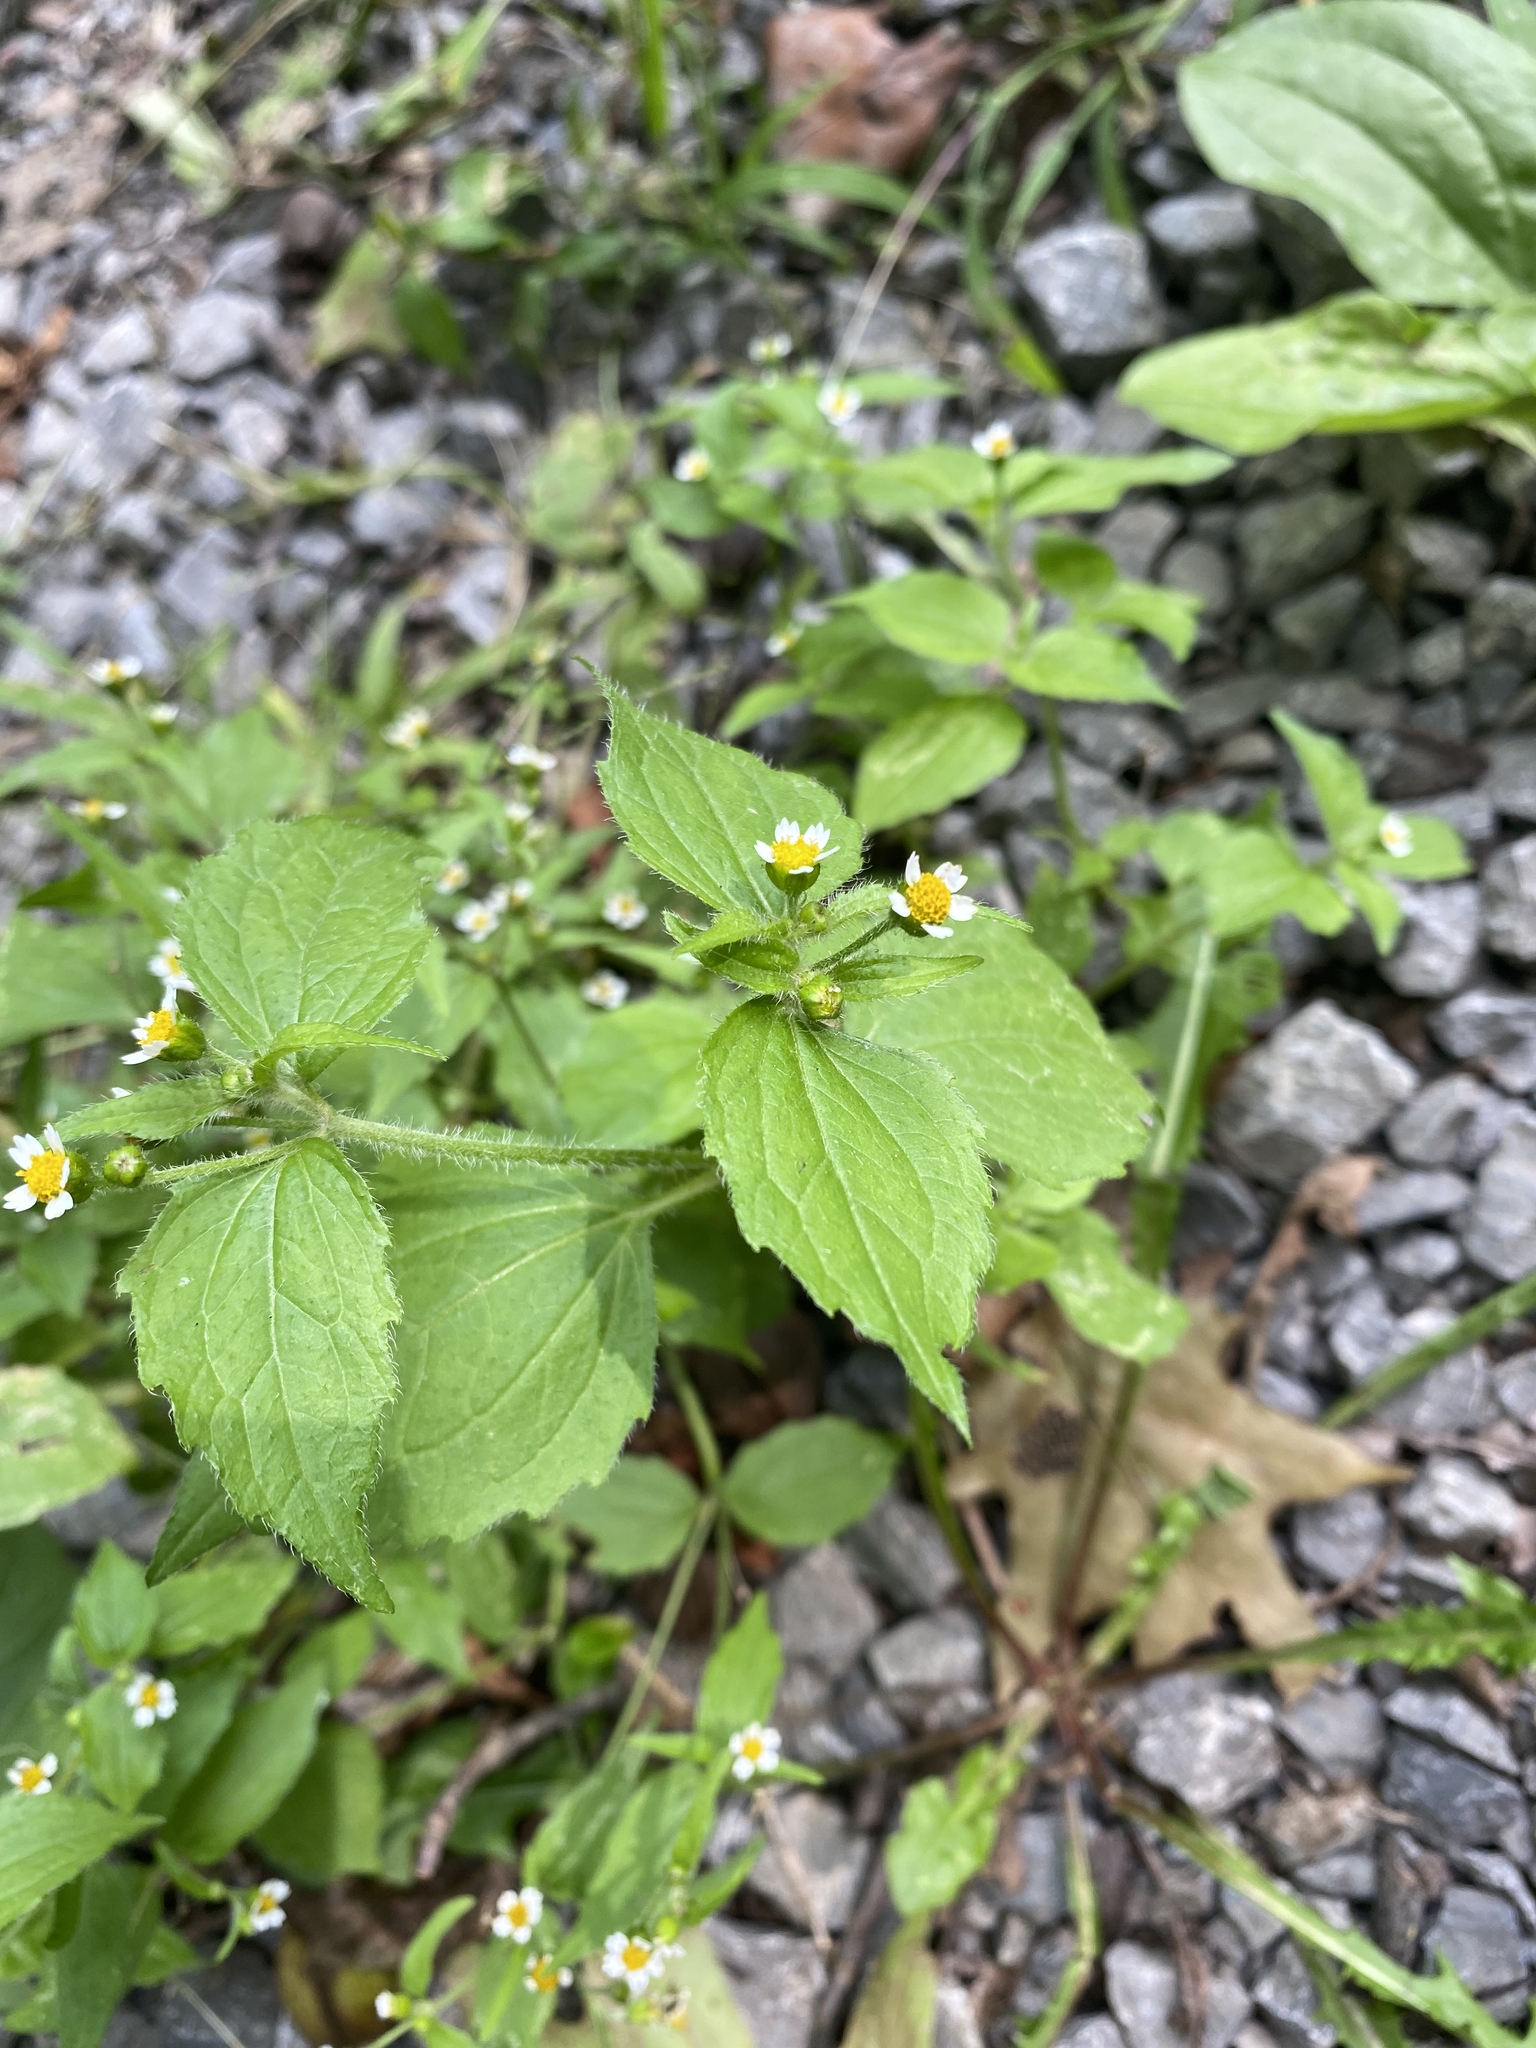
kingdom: Plantae
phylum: Tracheophyta
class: Magnoliopsida
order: Asterales
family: Asteraceae
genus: Galinsoga
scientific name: Galinsoga quadriradiata
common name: Shaggy soldier
